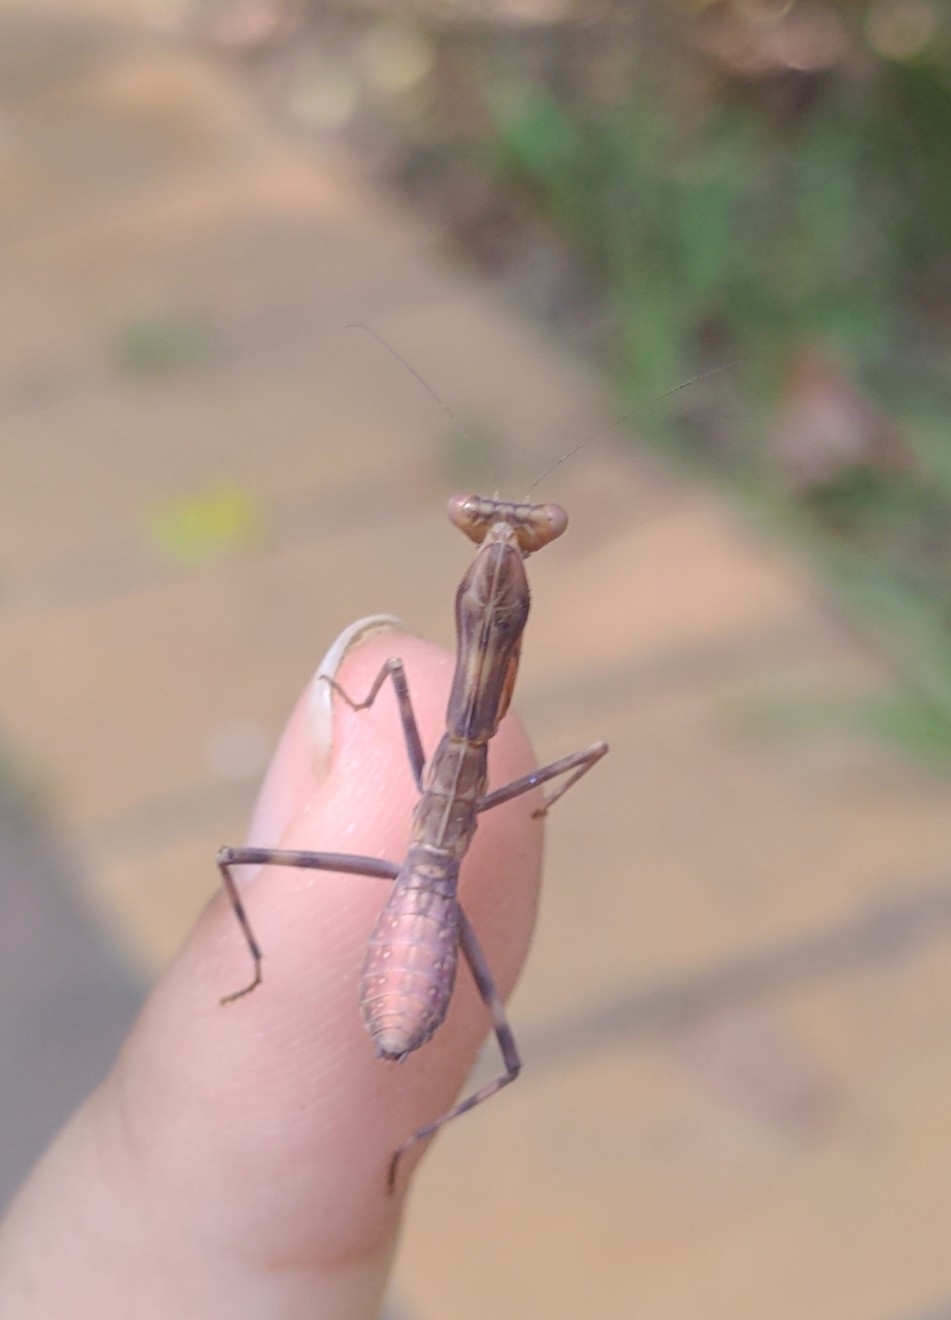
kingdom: Animalia
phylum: Arthropoda
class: Insecta
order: Mantodea
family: Mantidae
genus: Hierodula
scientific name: Hierodula patellifera
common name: Asian mantis
